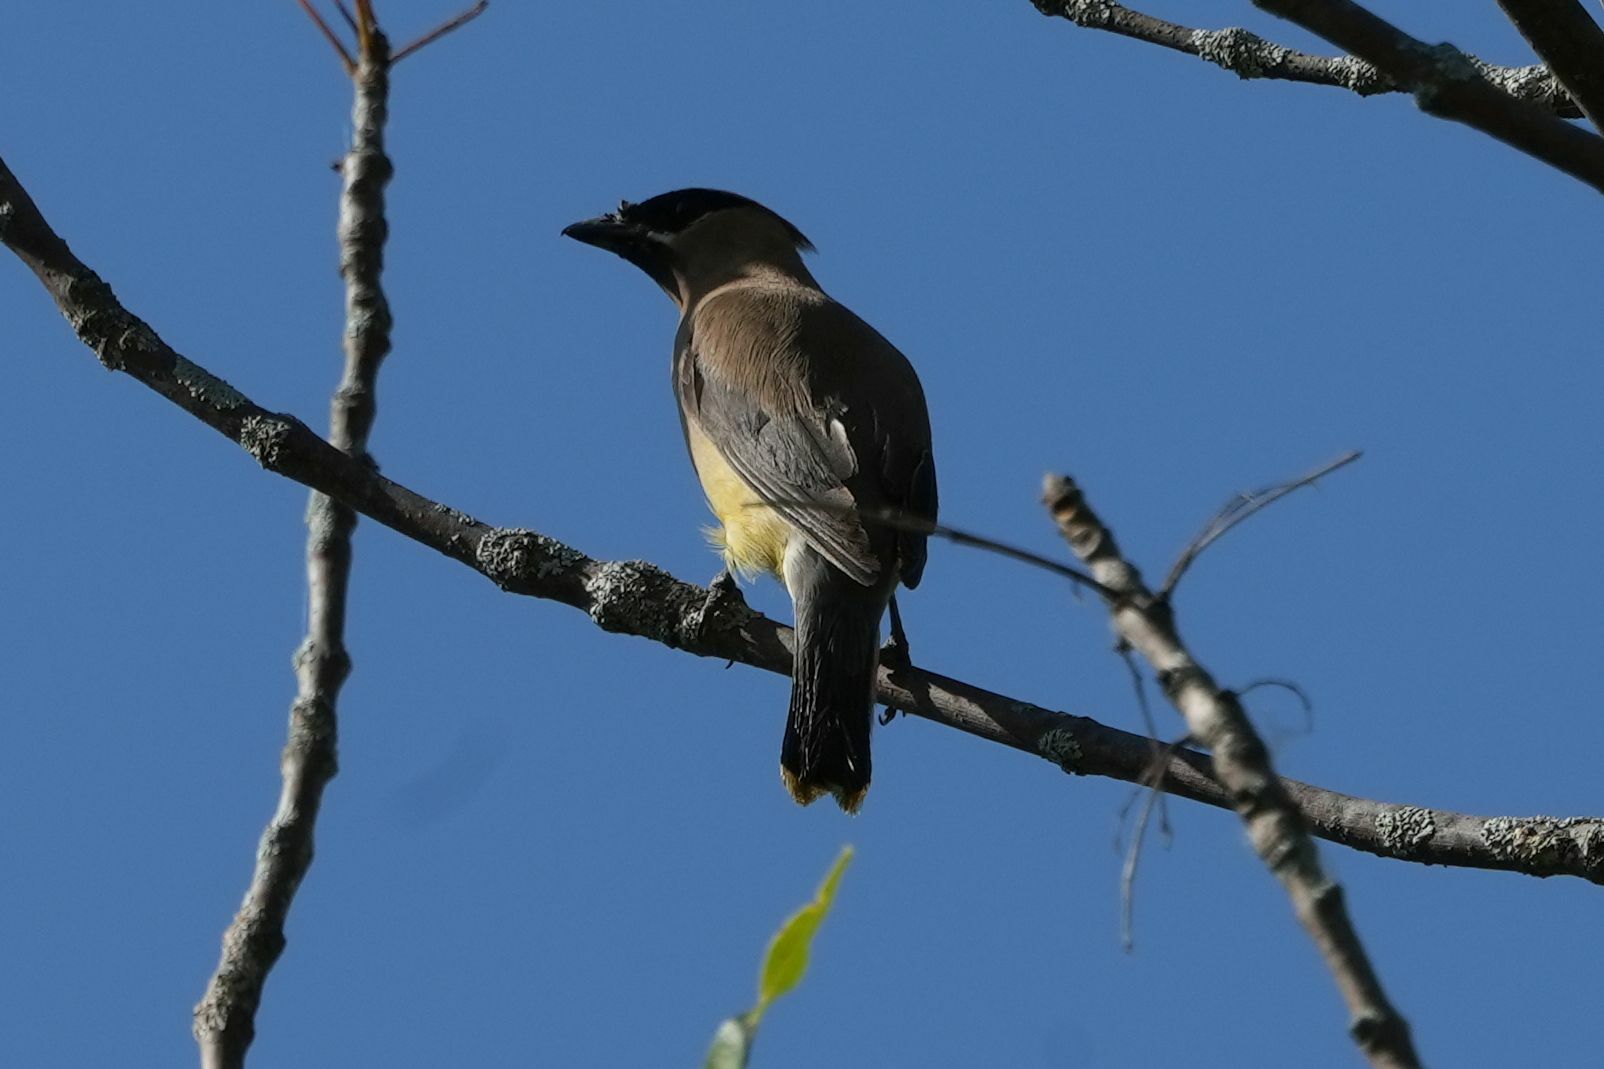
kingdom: Animalia
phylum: Chordata
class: Aves
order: Passeriformes
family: Bombycillidae
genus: Bombycilla
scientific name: Bombycilla cedrorum
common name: Cedar waxwing
